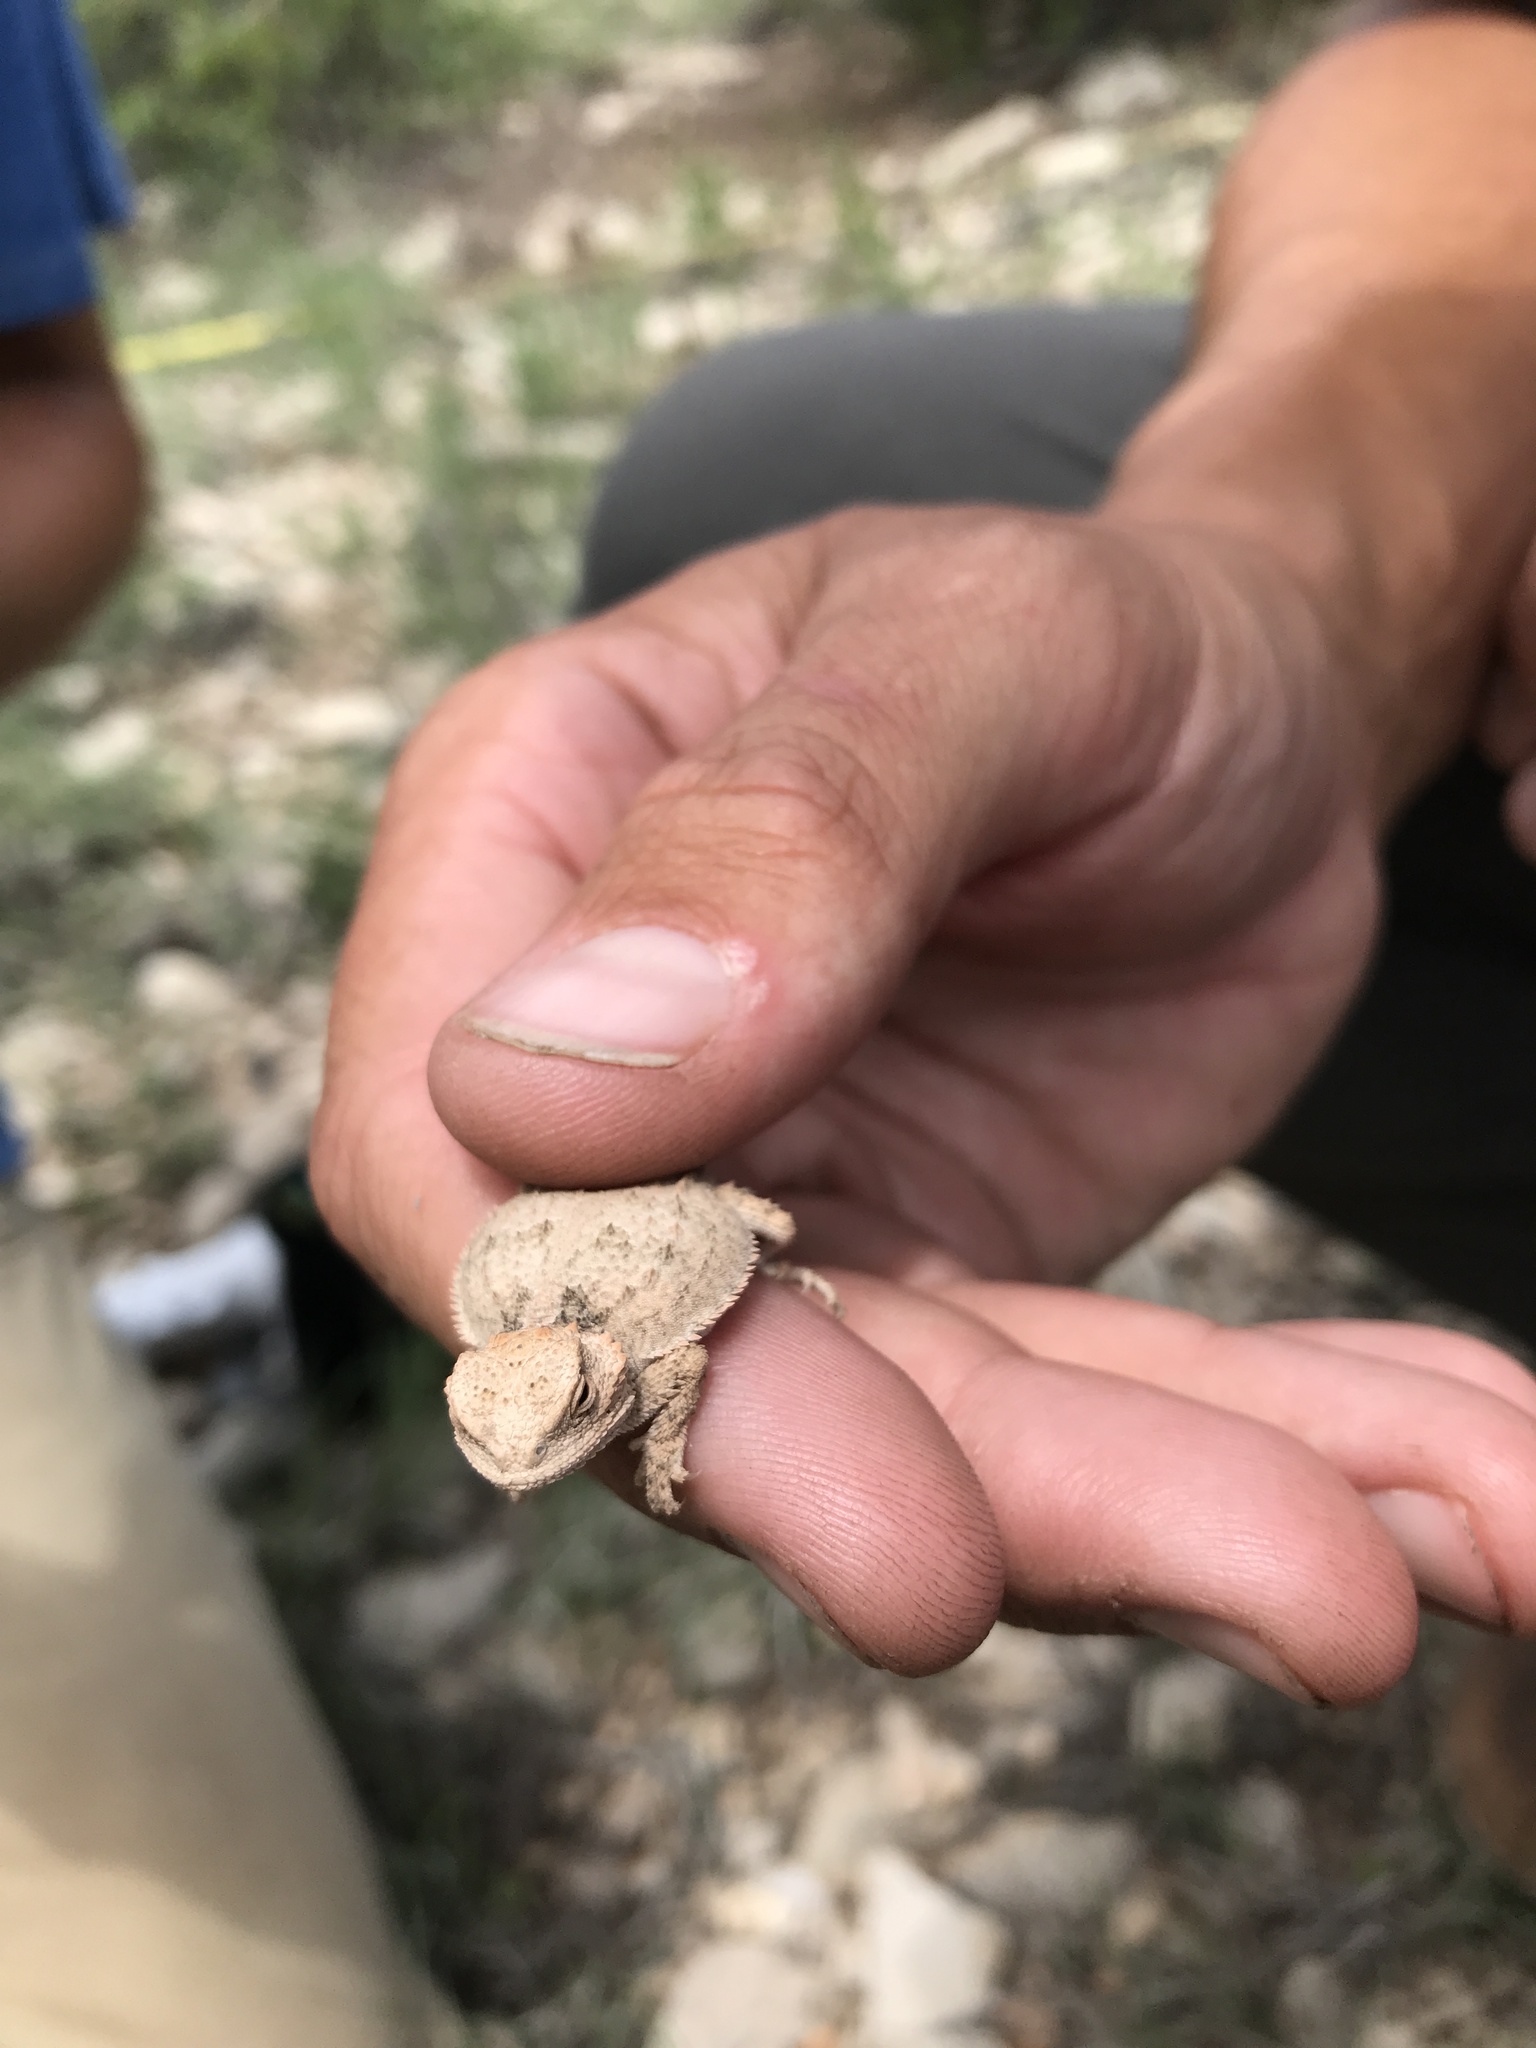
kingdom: Animalia
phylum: Chordata
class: Squamata
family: Phrynosomatidae
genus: Phrynosoma
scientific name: Phrynosoma hernandesi
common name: Greater short-horned lizard
